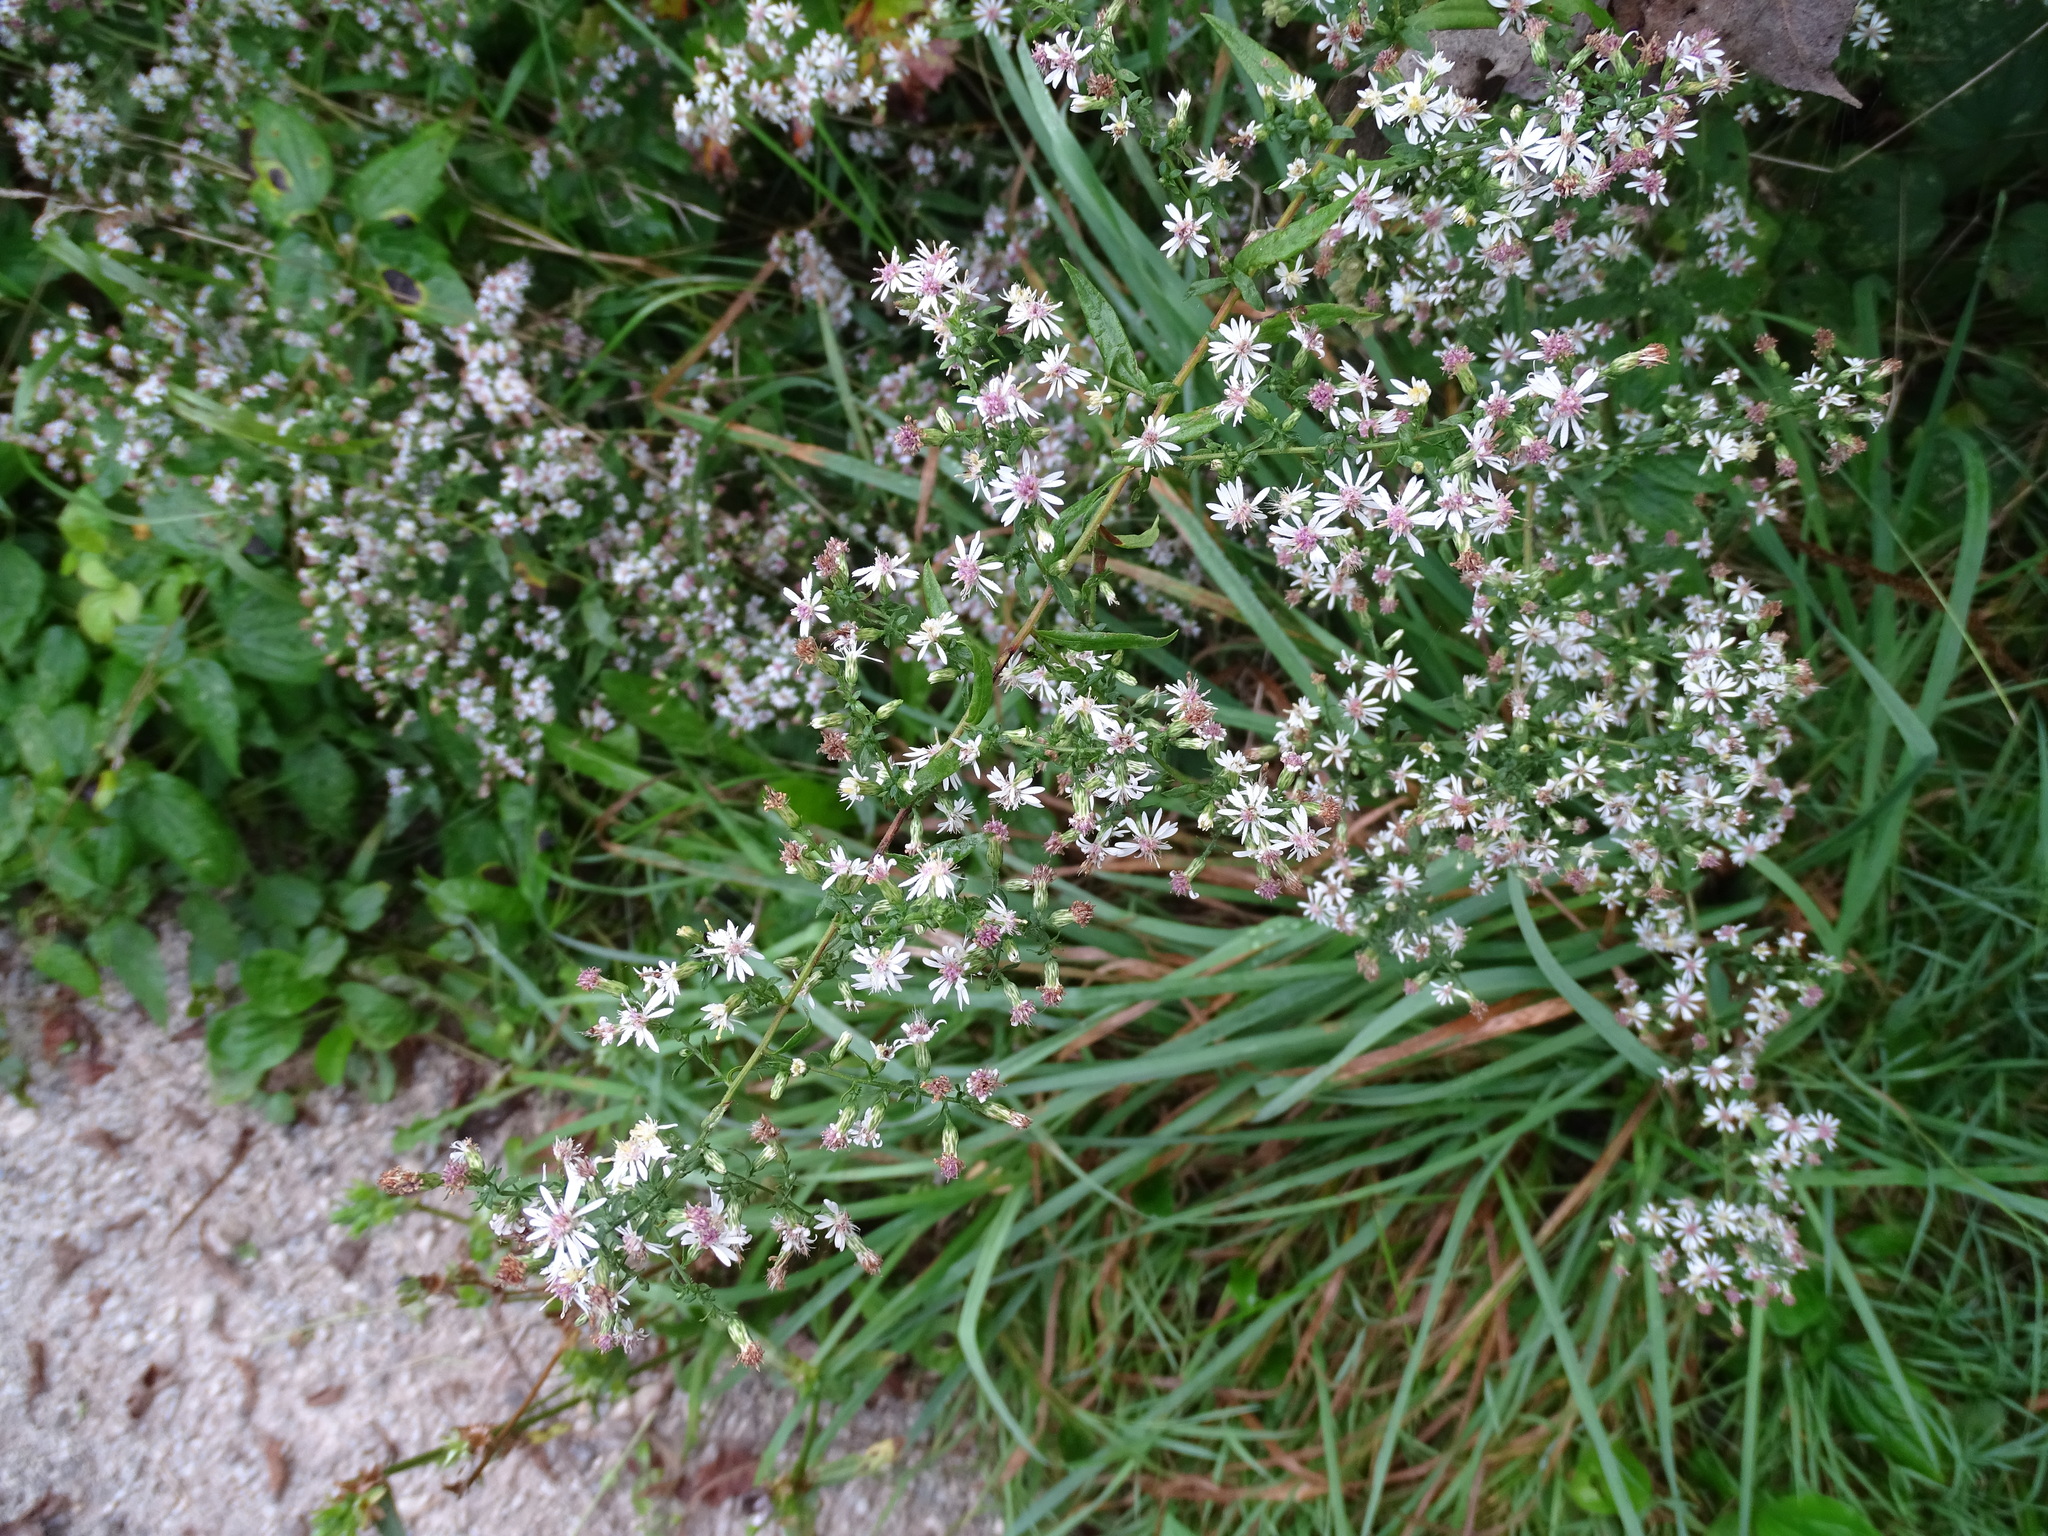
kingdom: Plantae
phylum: Tracheophyta
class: Magnoliopsida
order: Asterales
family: Asteraceae
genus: Symphyotrichum
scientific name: Symphyotrichum lateriflorum
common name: Calico aster
